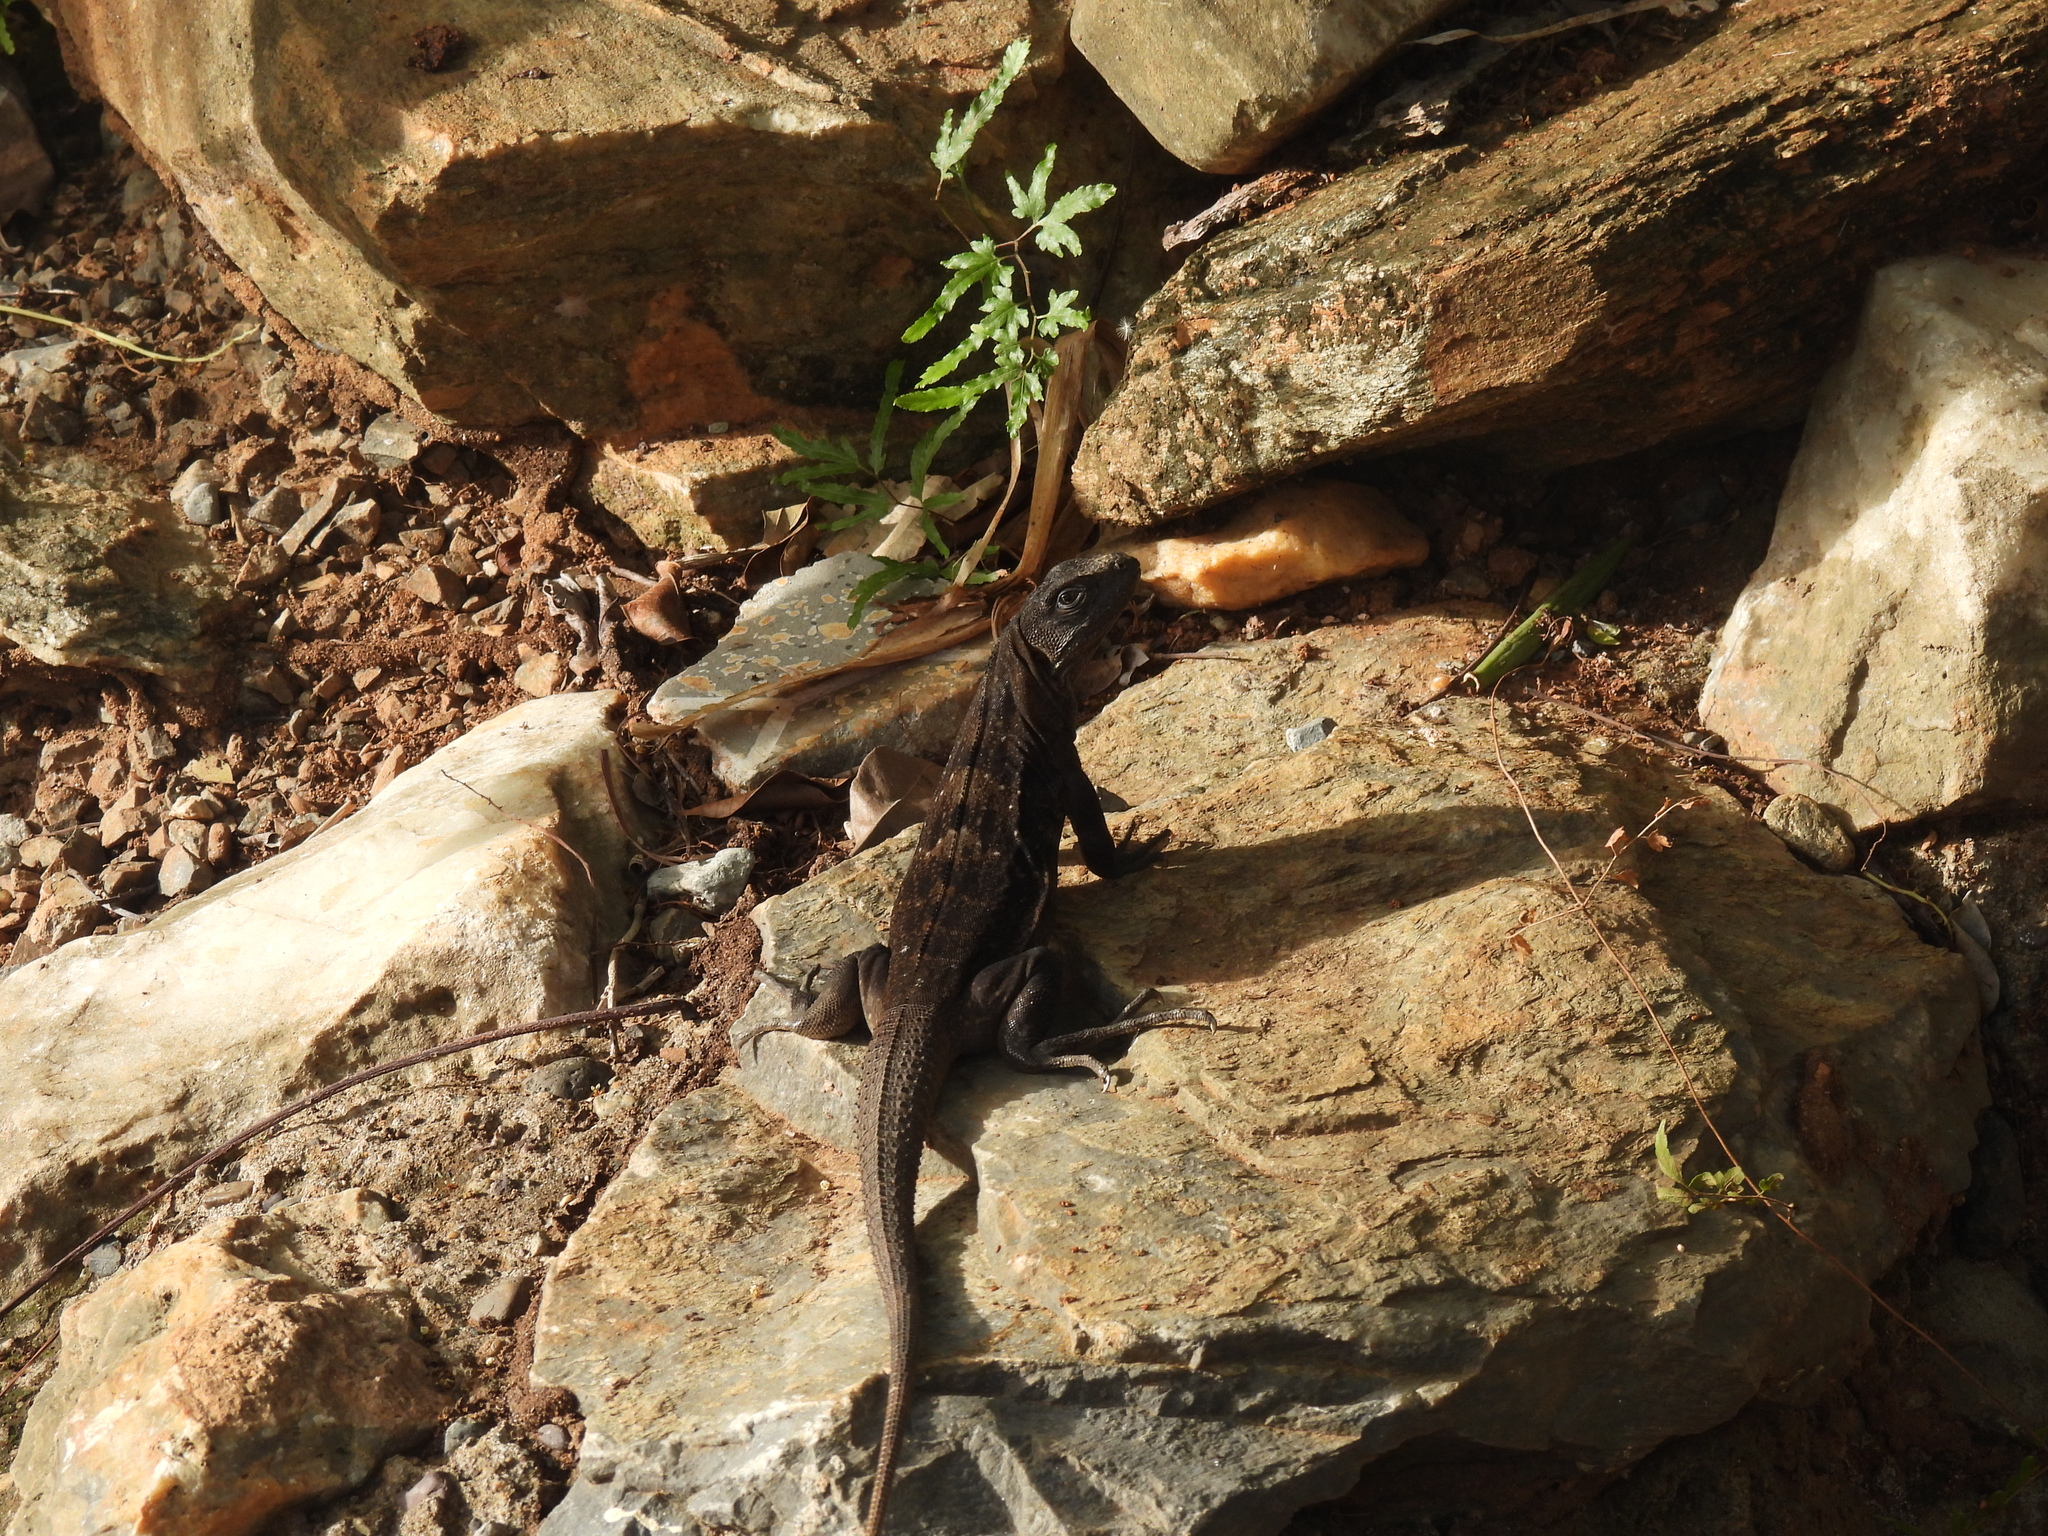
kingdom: Animalia
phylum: Chordata
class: Squamata
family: Iguanidae
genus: Ctenosaura
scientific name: Ctenosaura oedirhina
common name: Roatan spiny-tailed iguana
